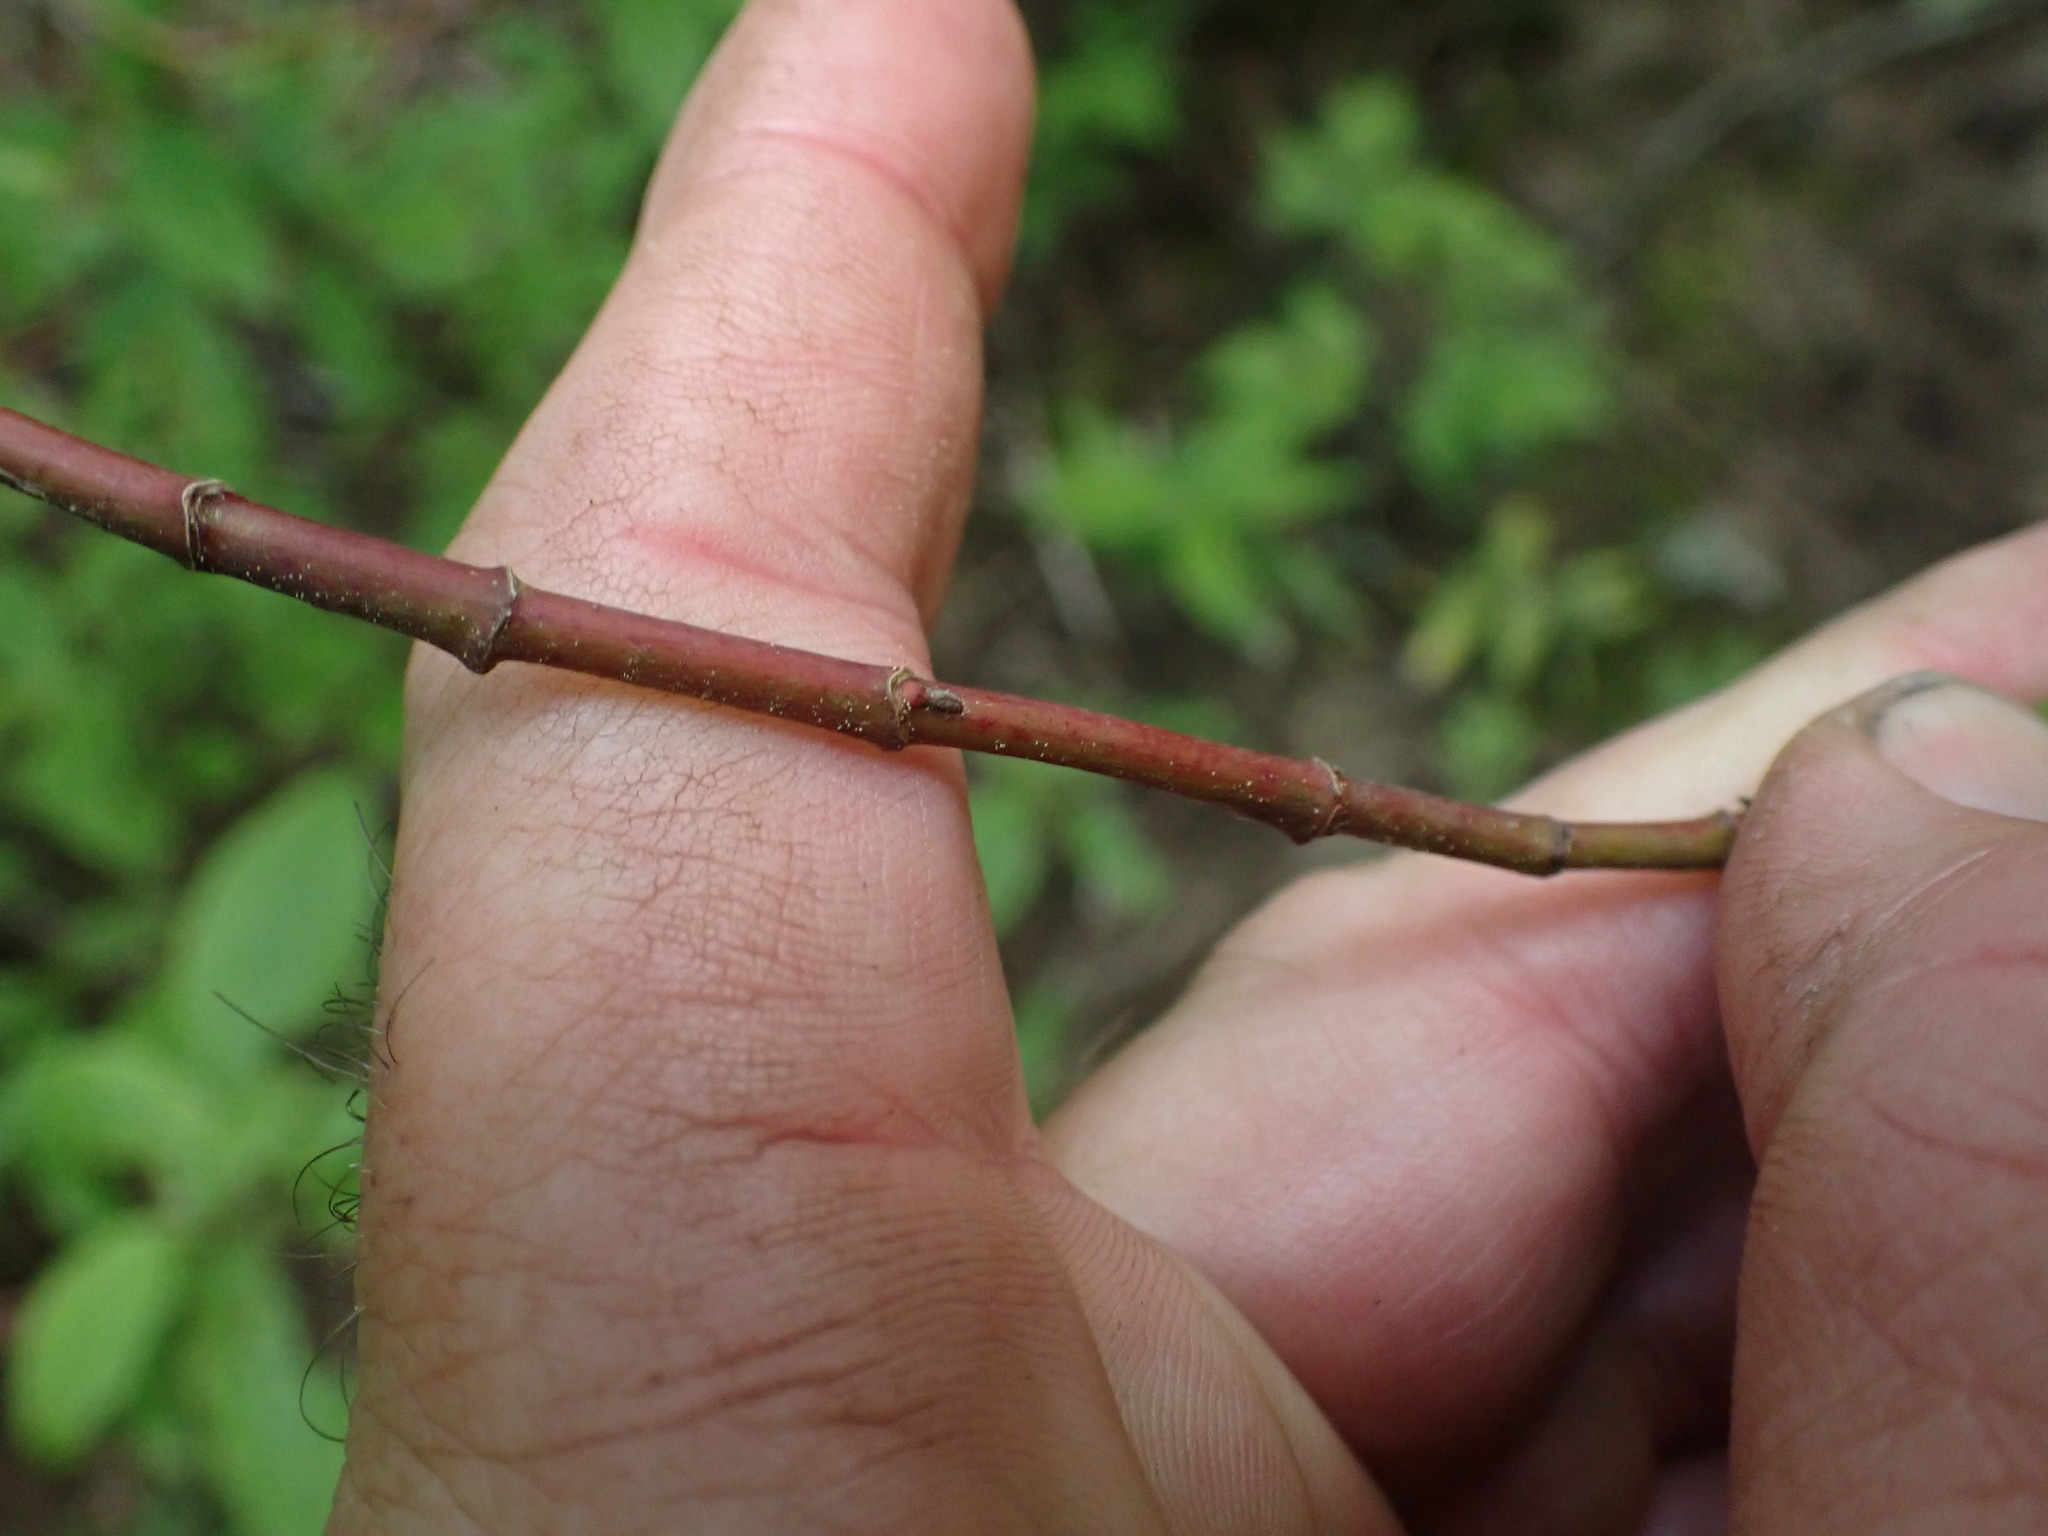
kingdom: Plantae
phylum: Tracheophyta
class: Magnoliopsida
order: Cornales
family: Cornaceae
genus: Cornus
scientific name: Cornus sericea
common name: Red-osier dogwood
